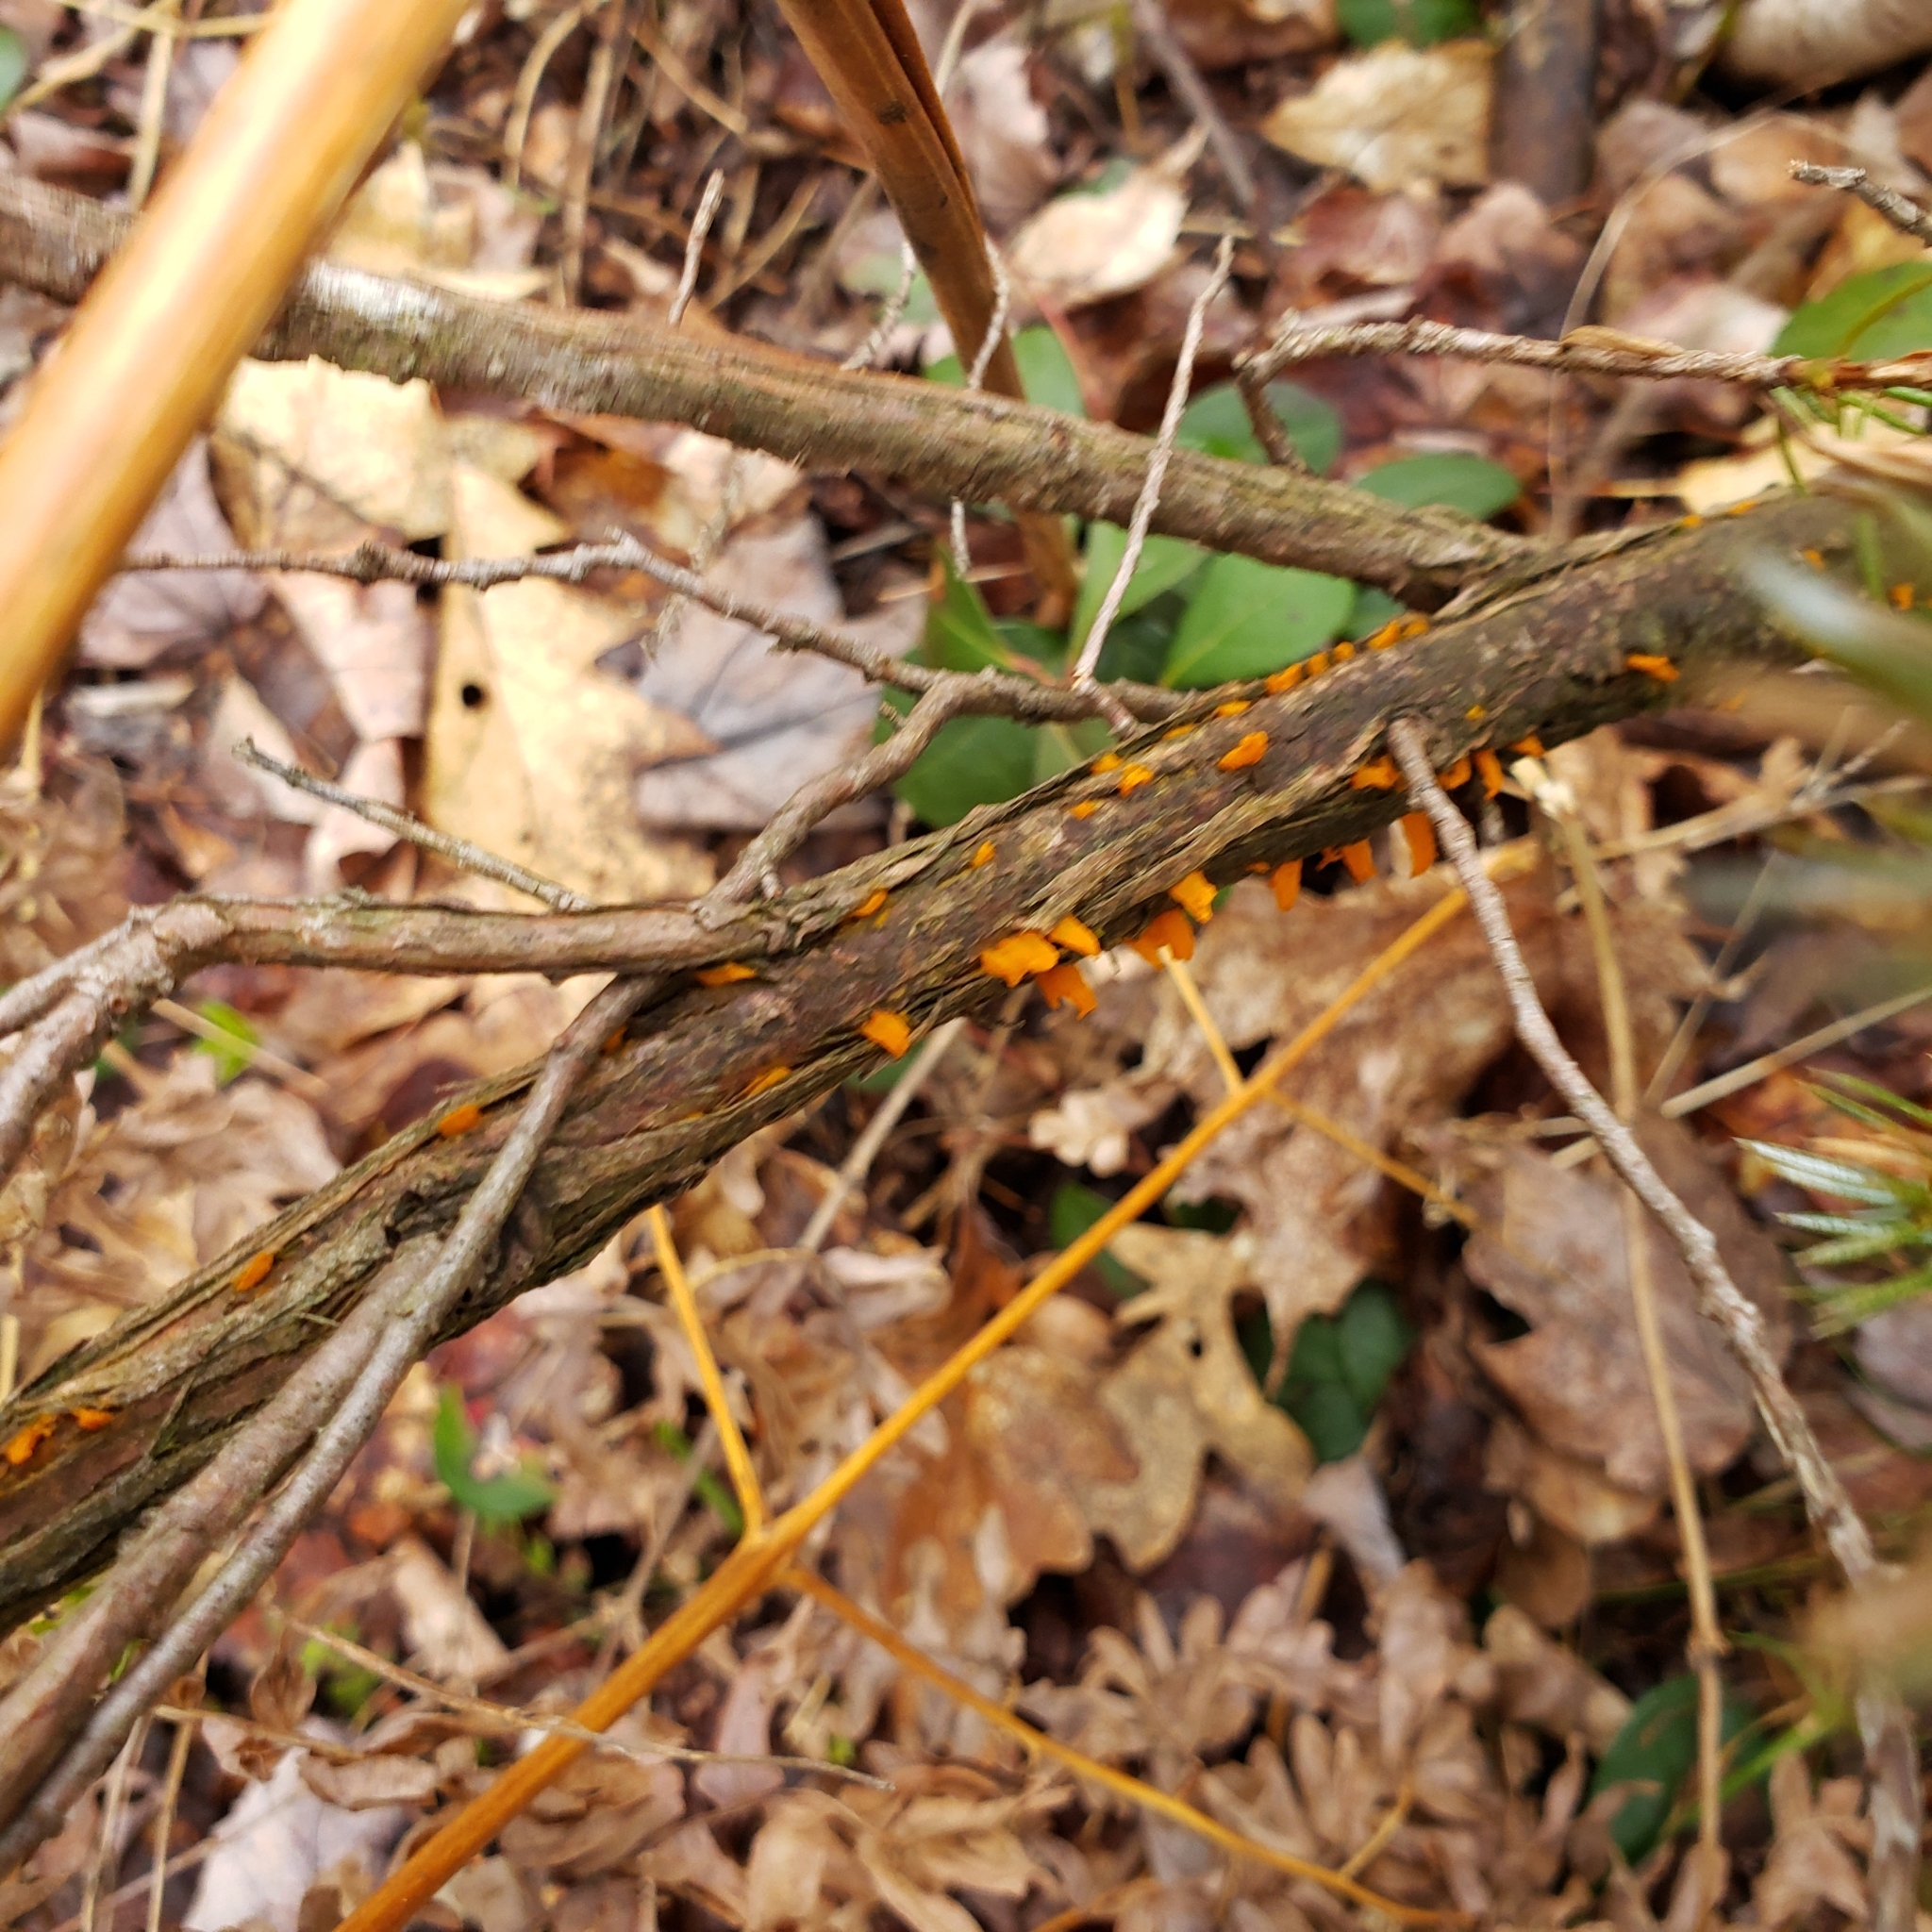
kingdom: Fungi
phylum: Basidiomycota
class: Pucciniomycetes
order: Pucciniales
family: Gymnosporangiaceae
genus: Gymnosporangium
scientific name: Gymnosporangium clavariiforme
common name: Tongues of fire
